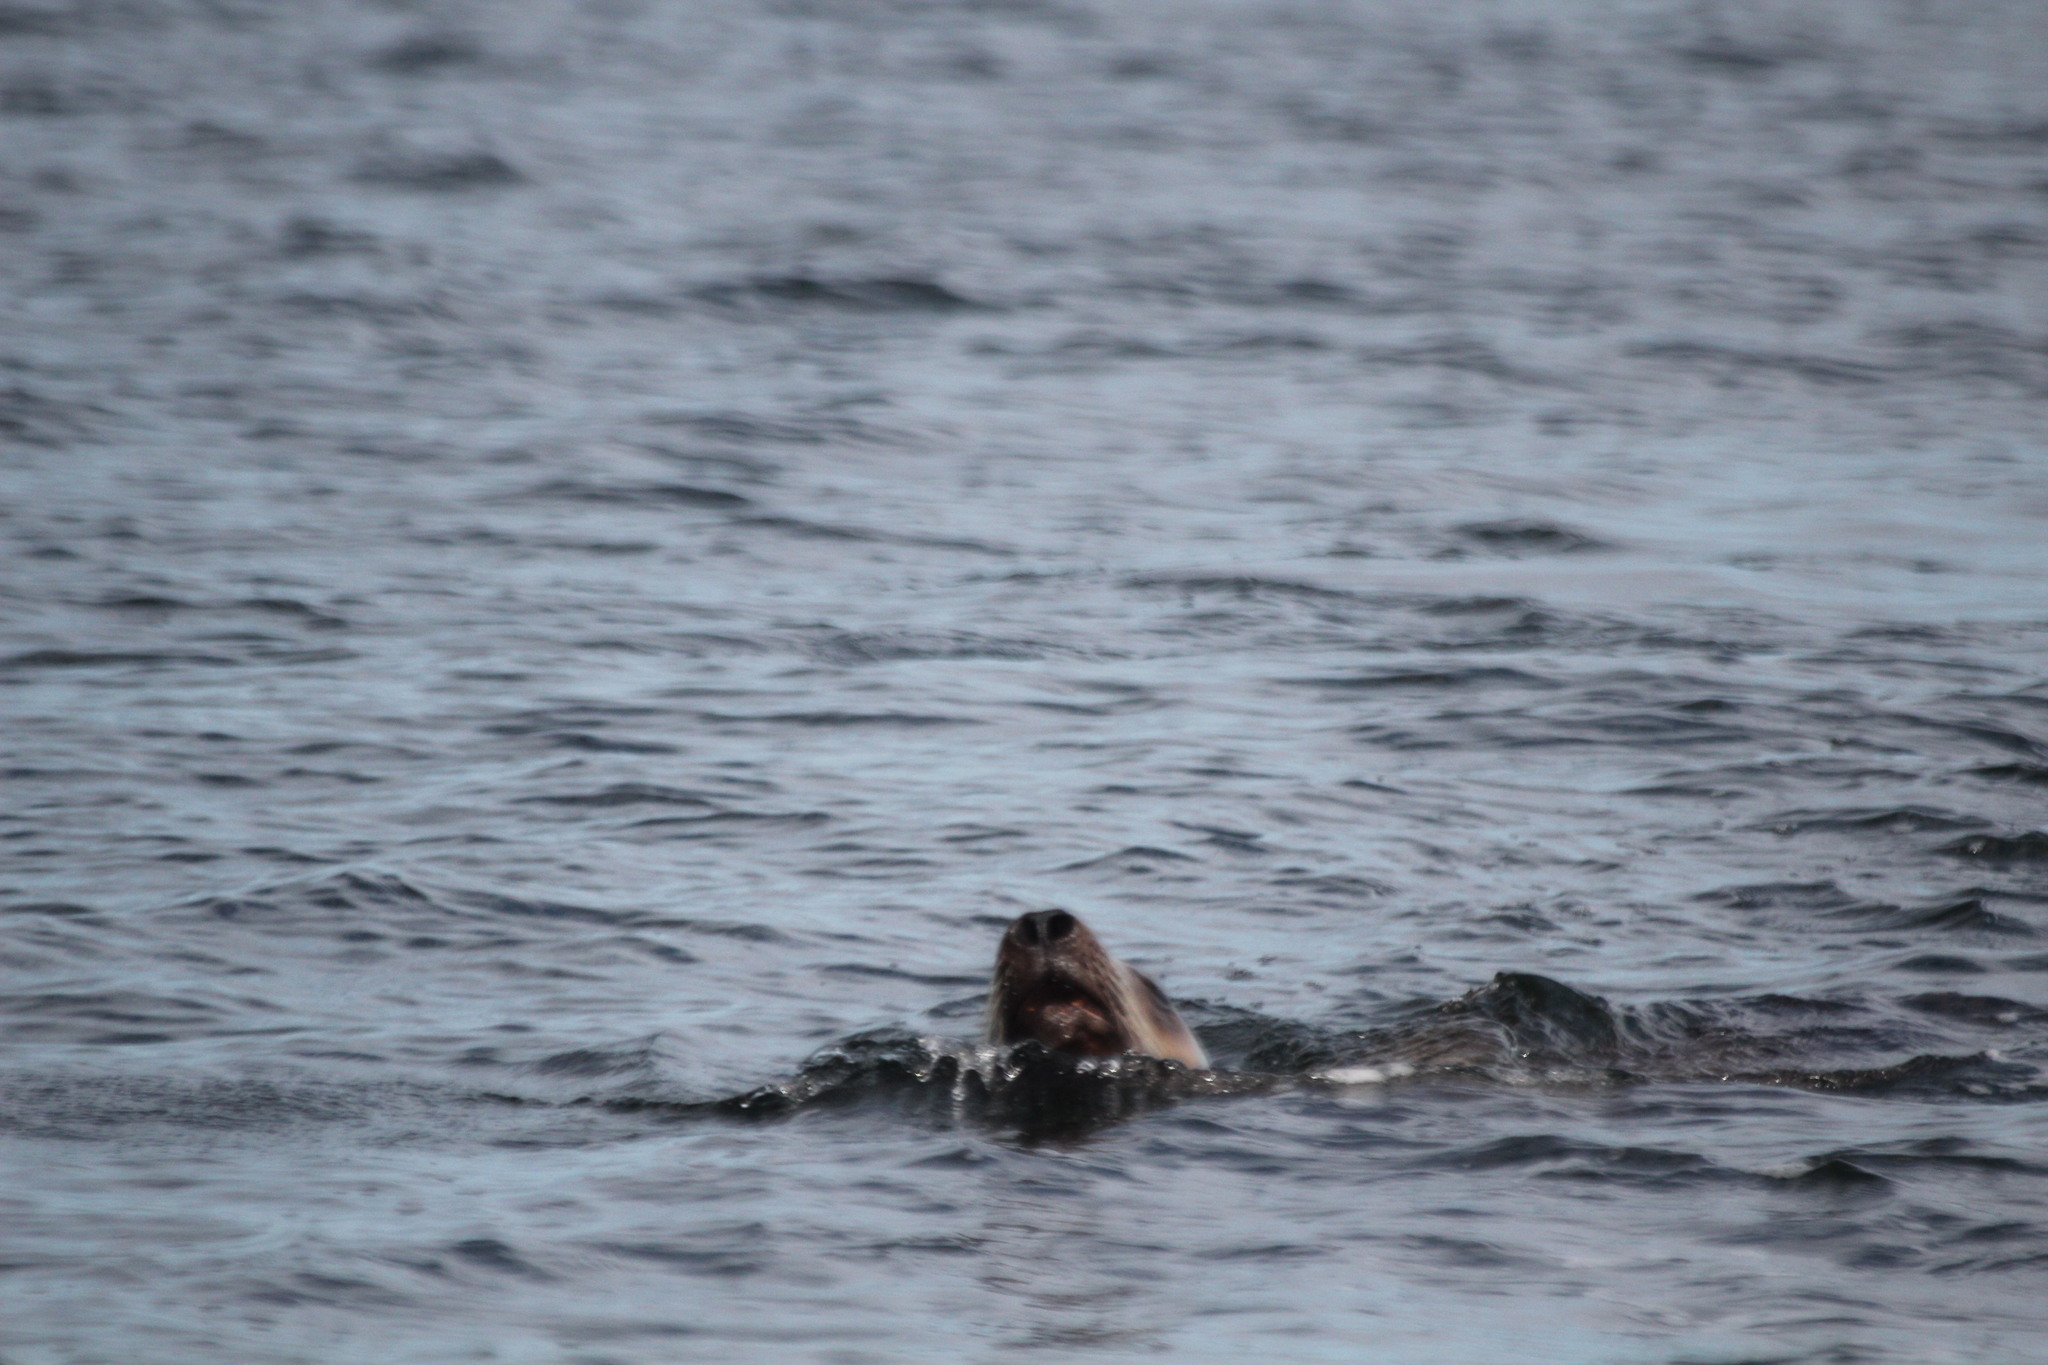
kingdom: Animalia
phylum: Chordata
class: Mammalia
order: Carnivora
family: Otariidae
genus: Eumetopias
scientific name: Eumetopias jubatus
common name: Steller sea lion
